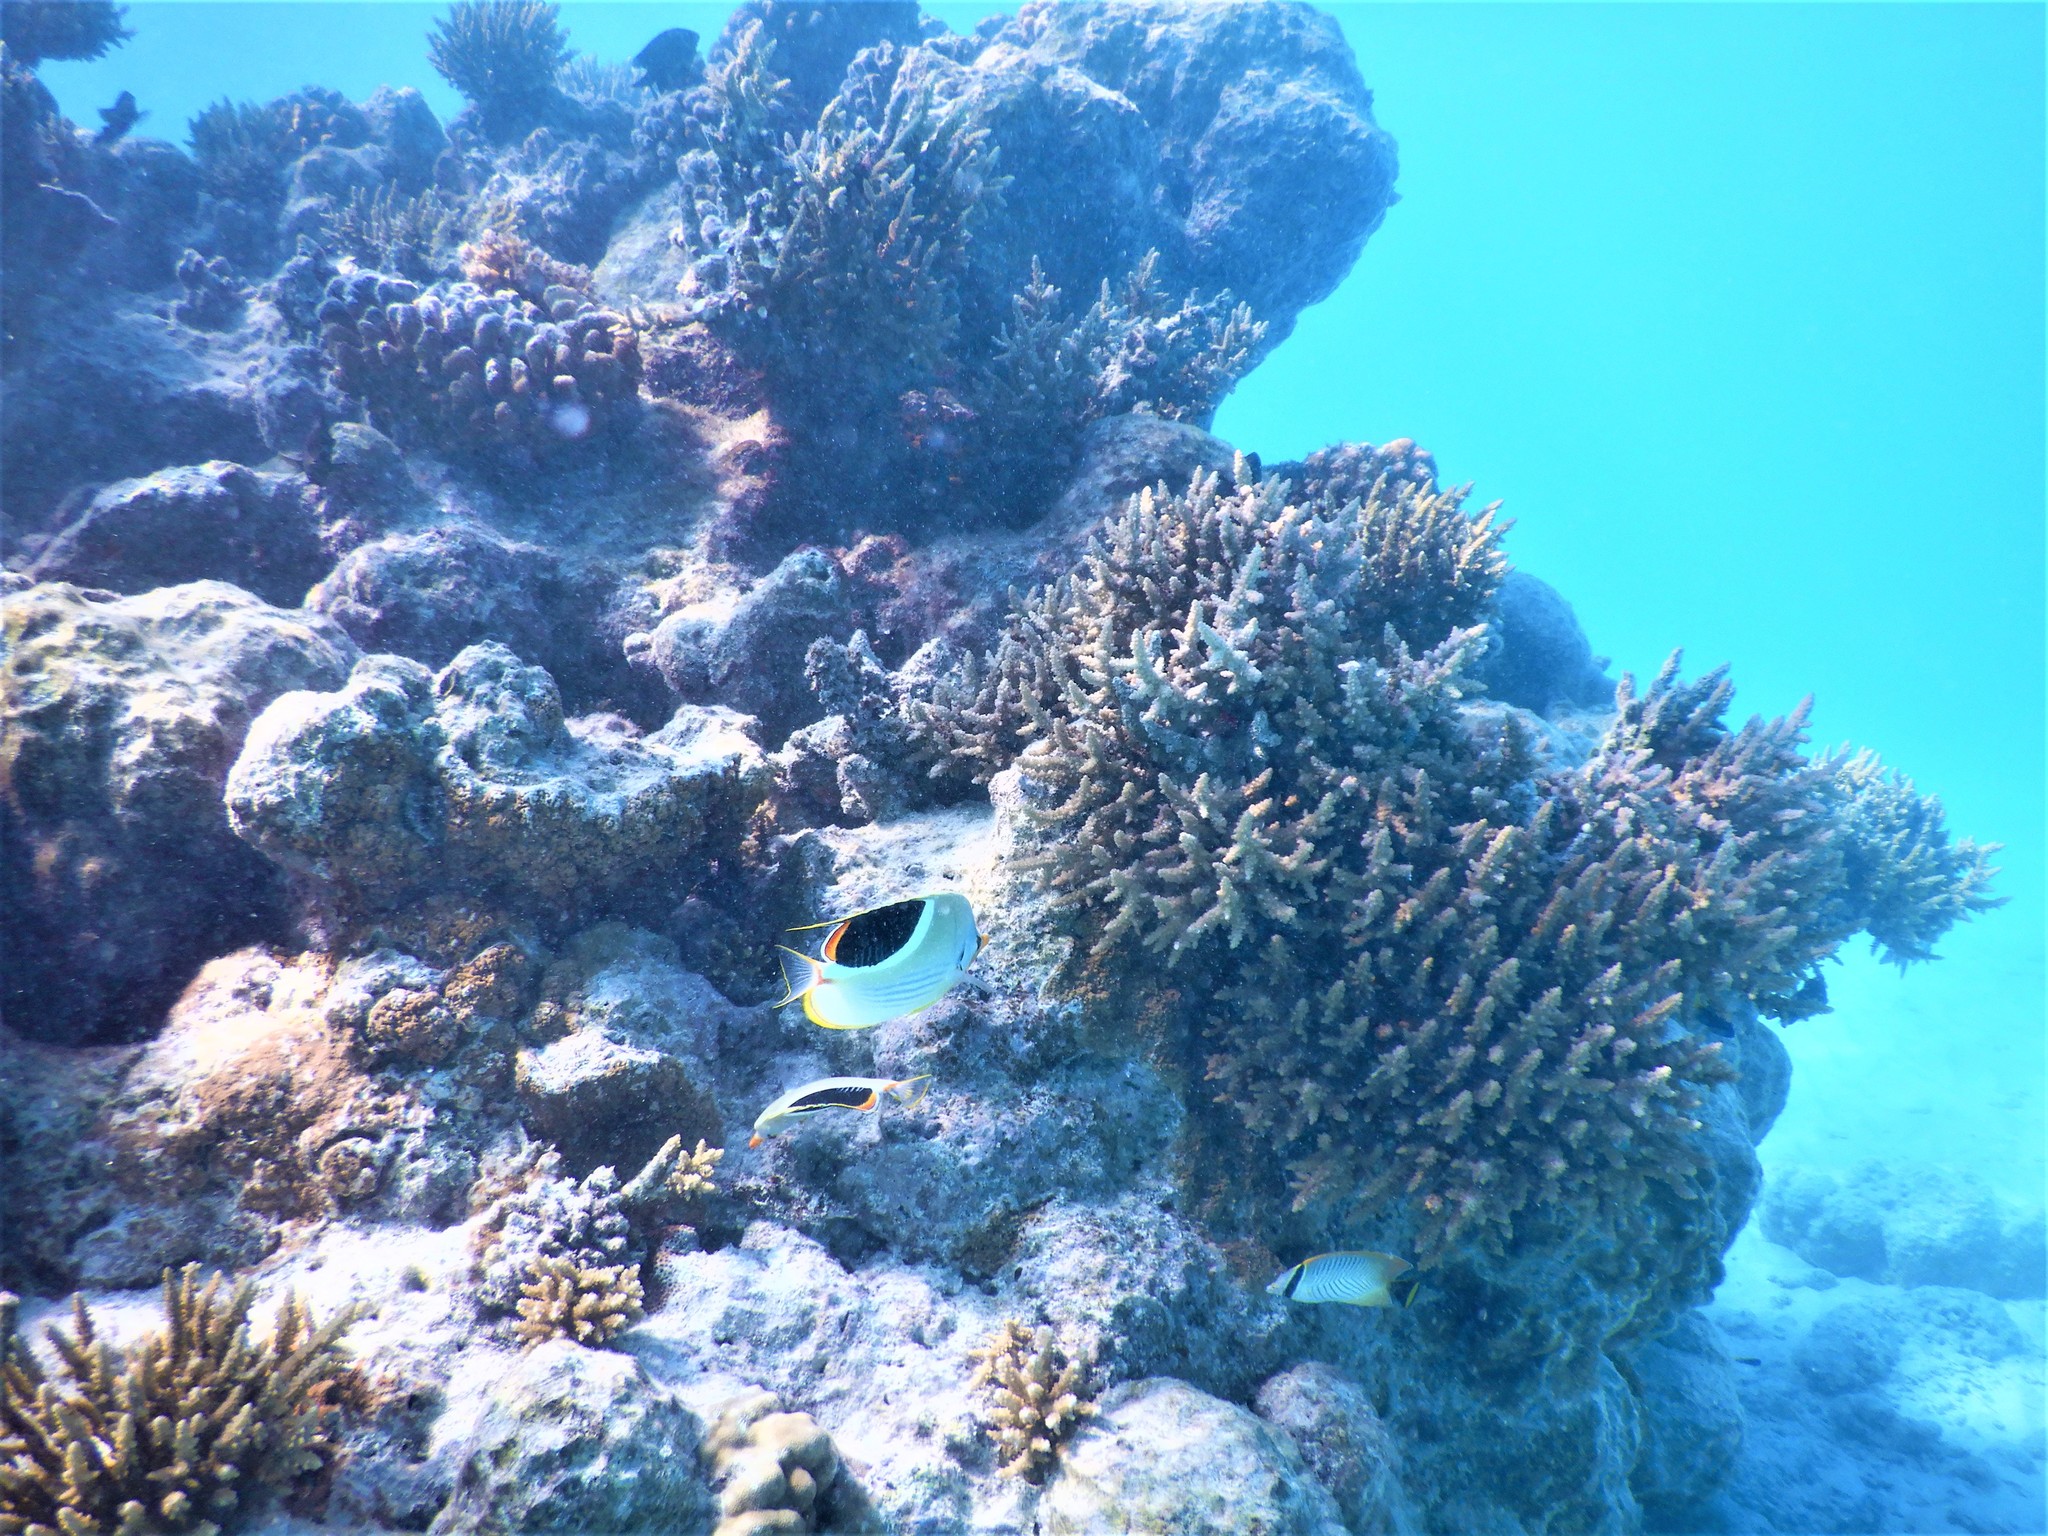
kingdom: Animalia
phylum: Chordata
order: Perciformes
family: Chaetodontidae
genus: Chaetodon
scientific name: Chaetodon ephippium
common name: Saddled butterflyfish
